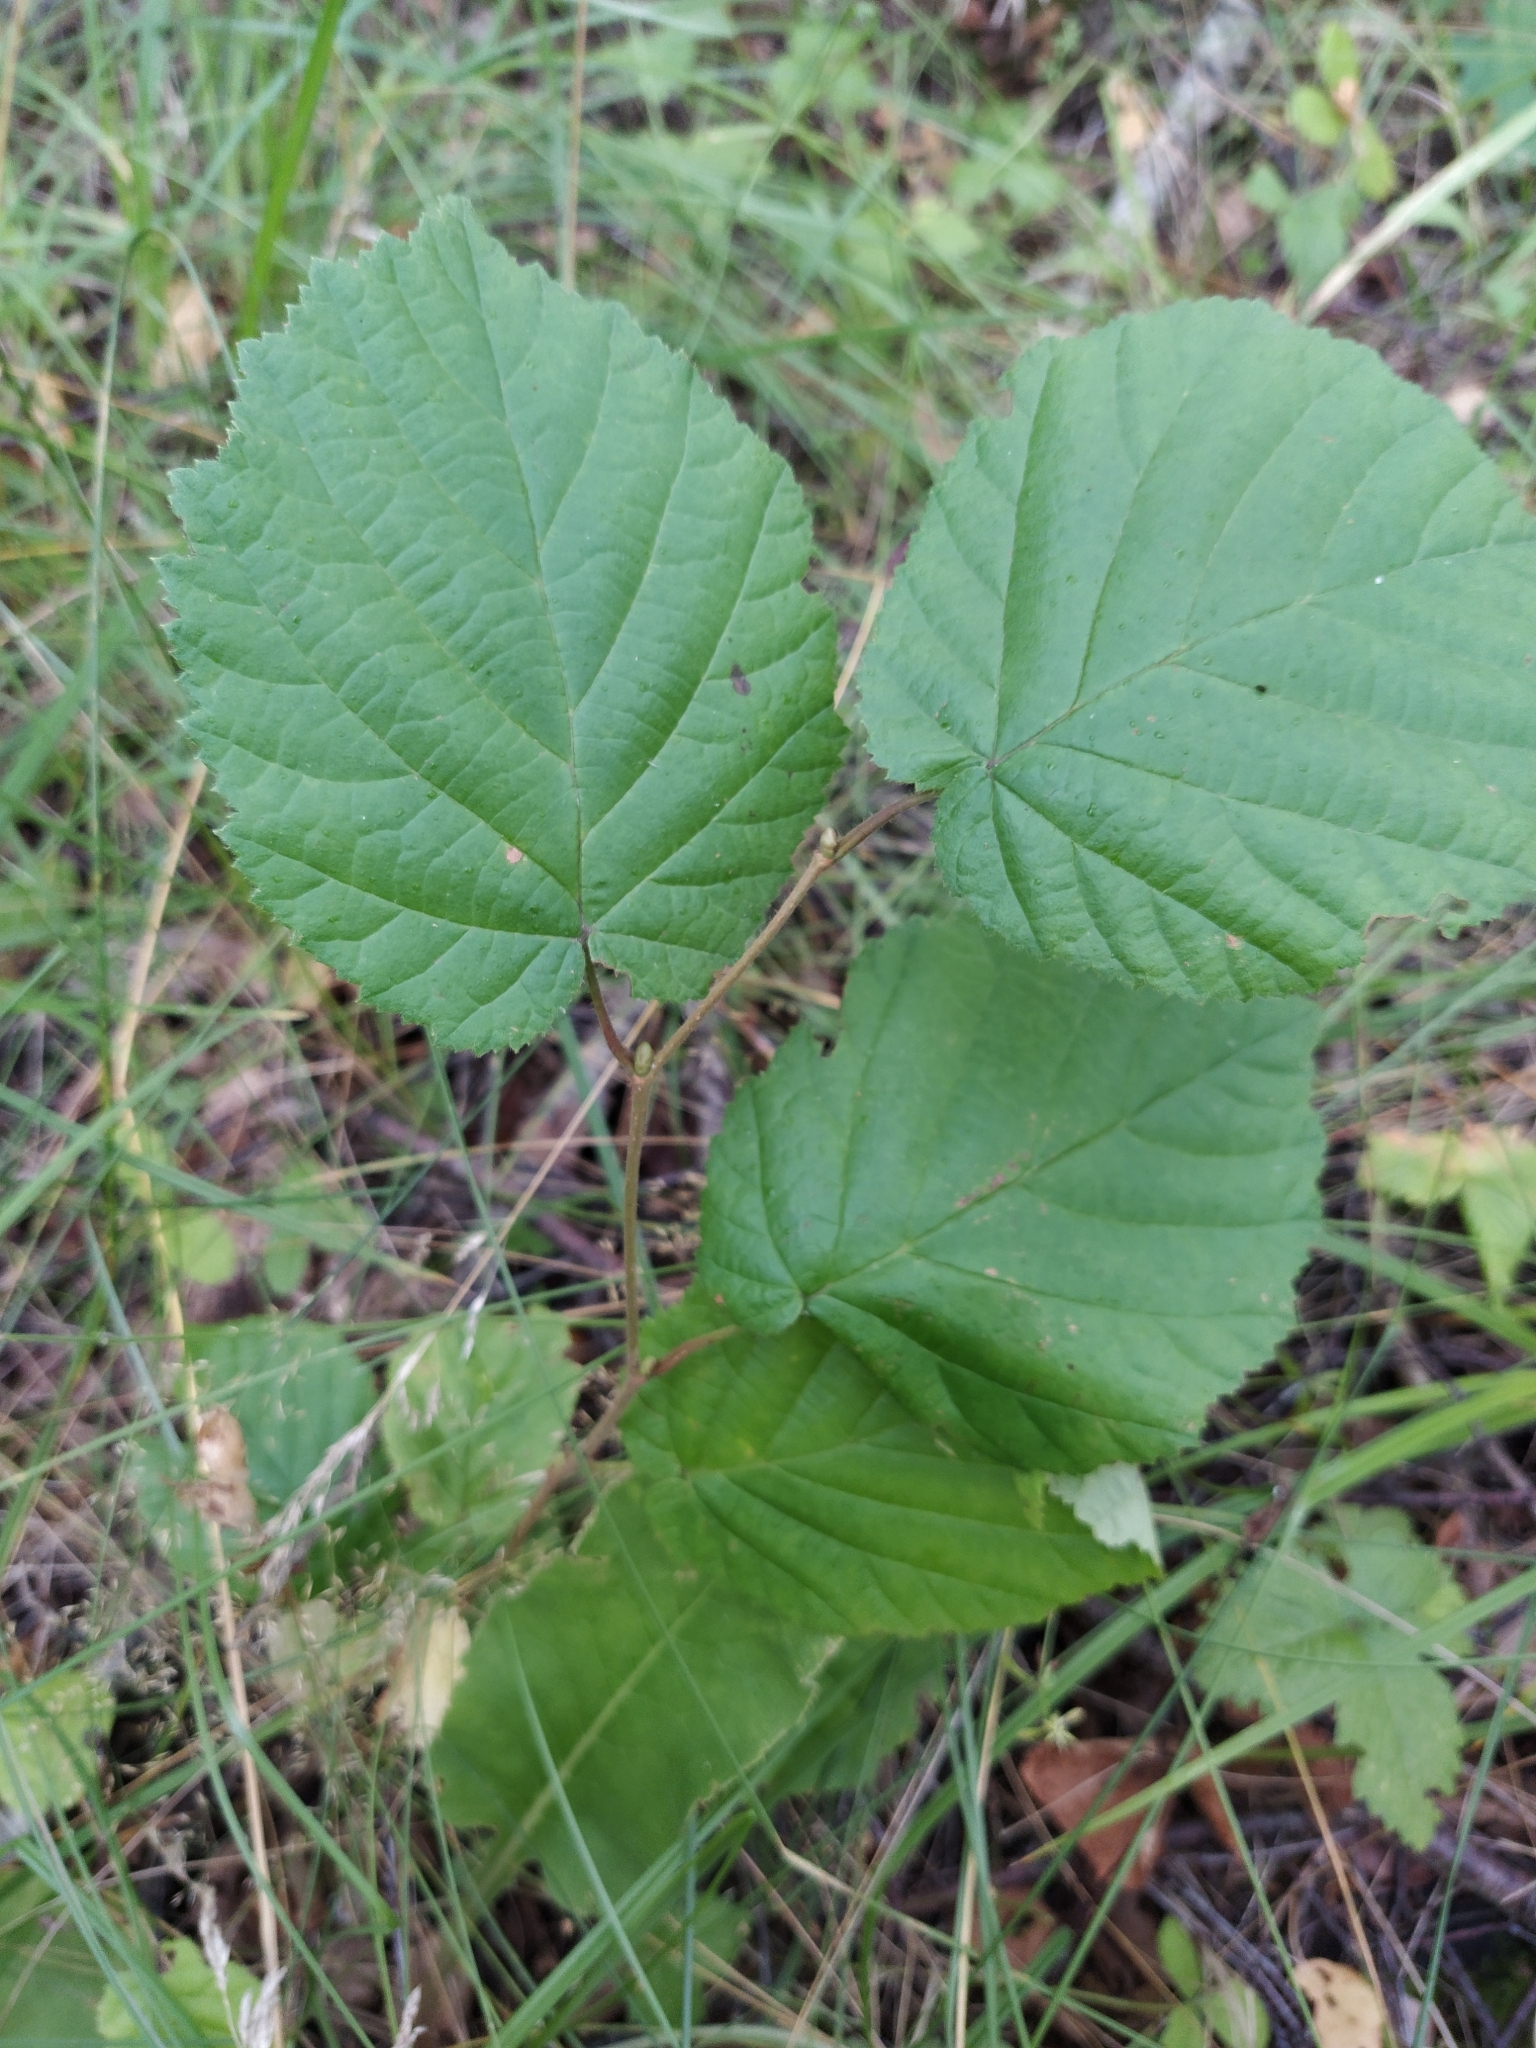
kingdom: Plantae
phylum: Tracheophyta
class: Magnoliopsida
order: Fagales
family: Betulaceae
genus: Corylus
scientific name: Corylus avellana
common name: European hazel
